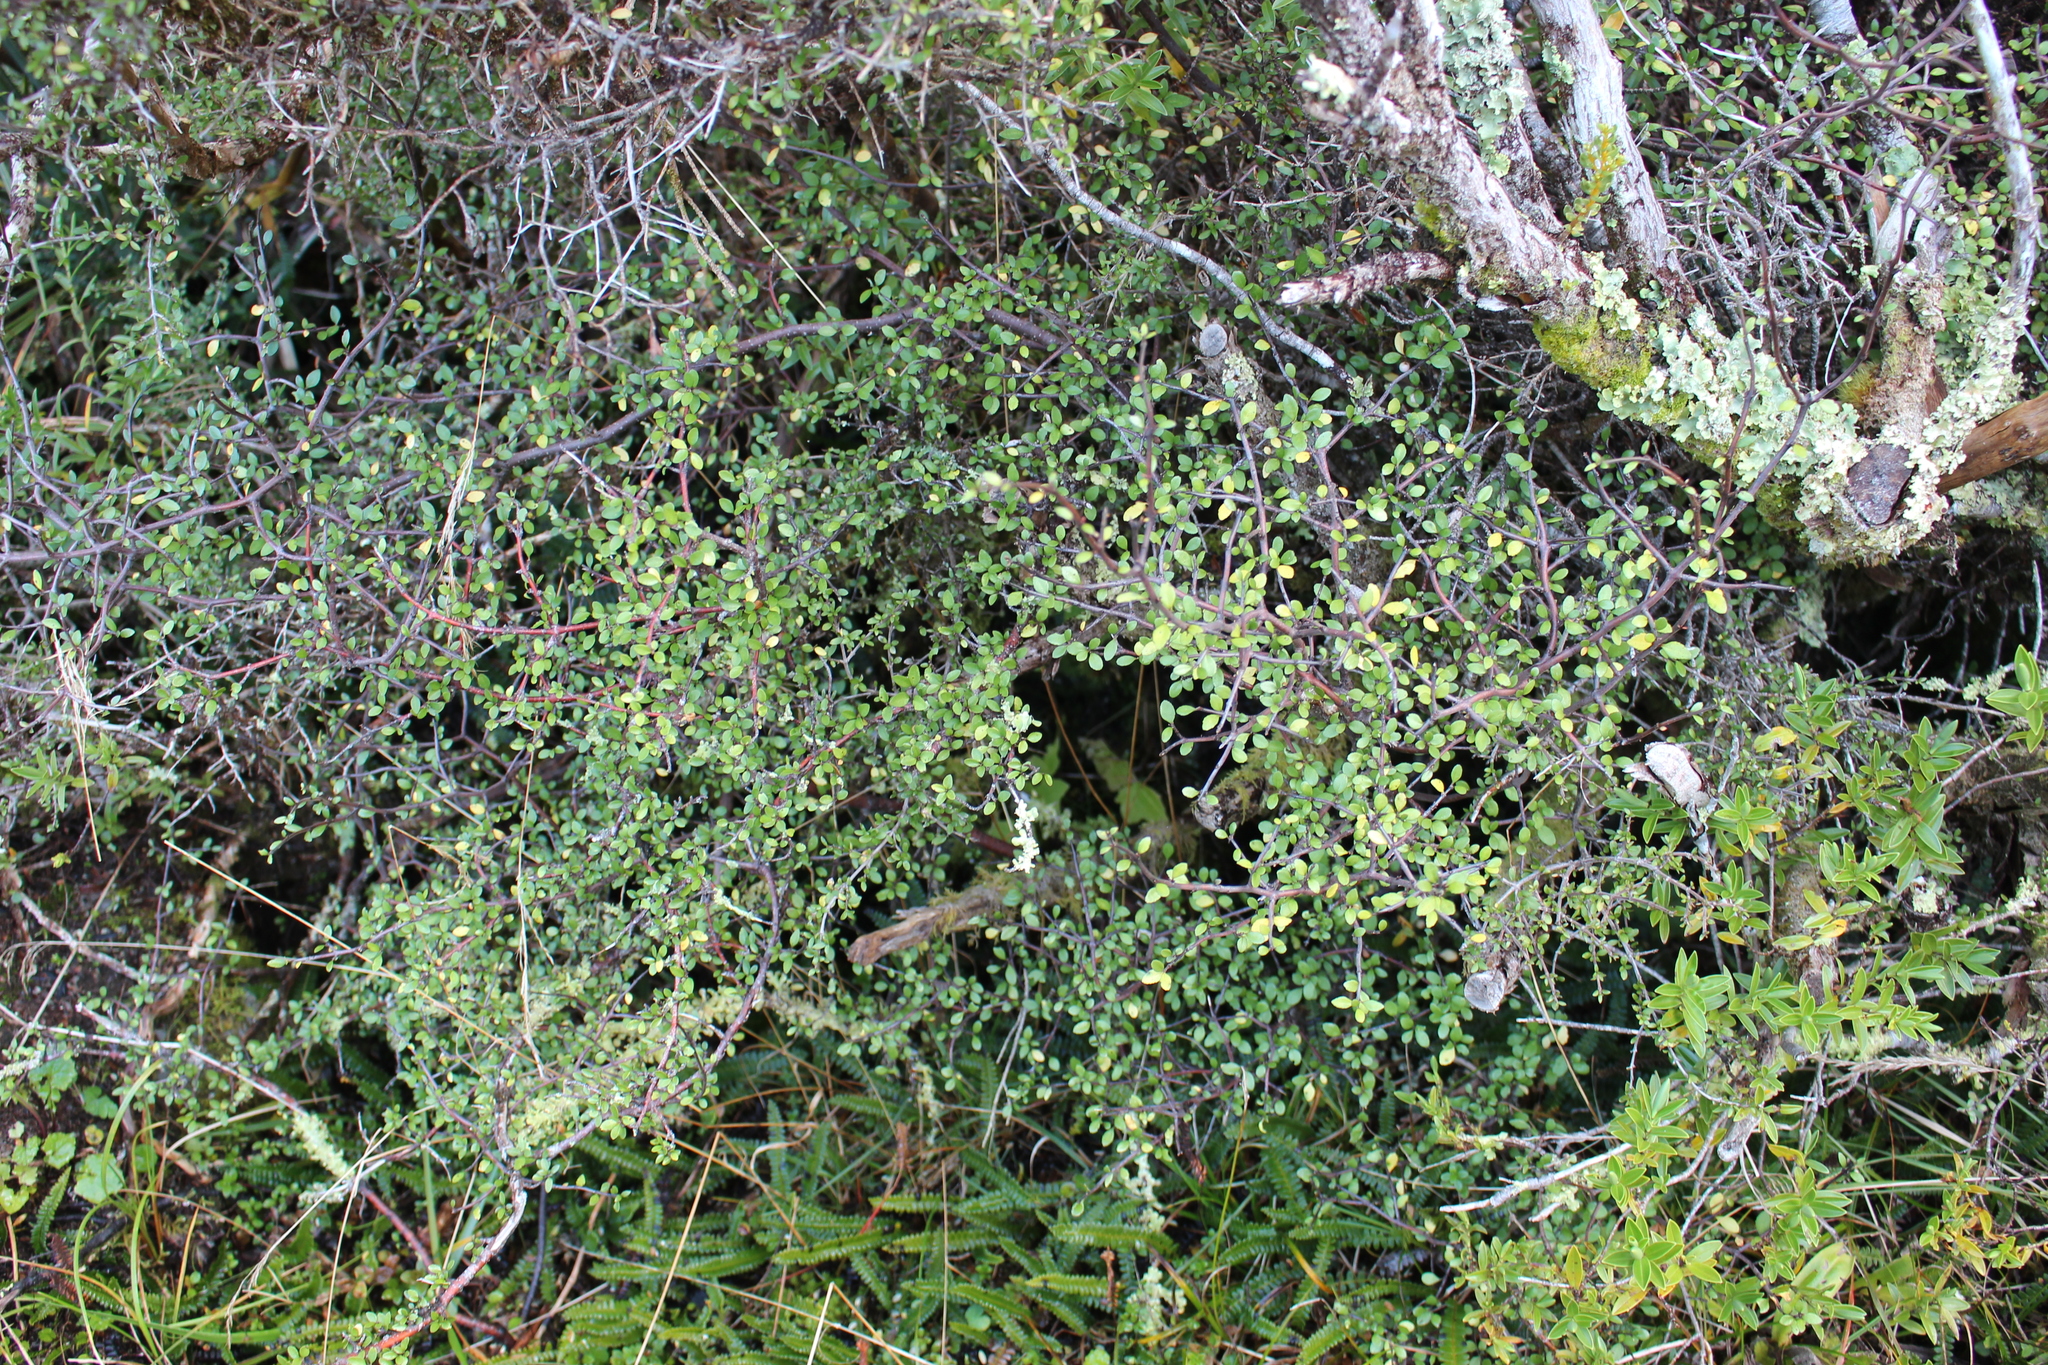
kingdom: Plantae
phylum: Tracheophyta
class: Magnoliopsida
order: Oxalidales
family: Elaeocarpaceae
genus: Aristotelia
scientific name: Aristotelia fruticosa
